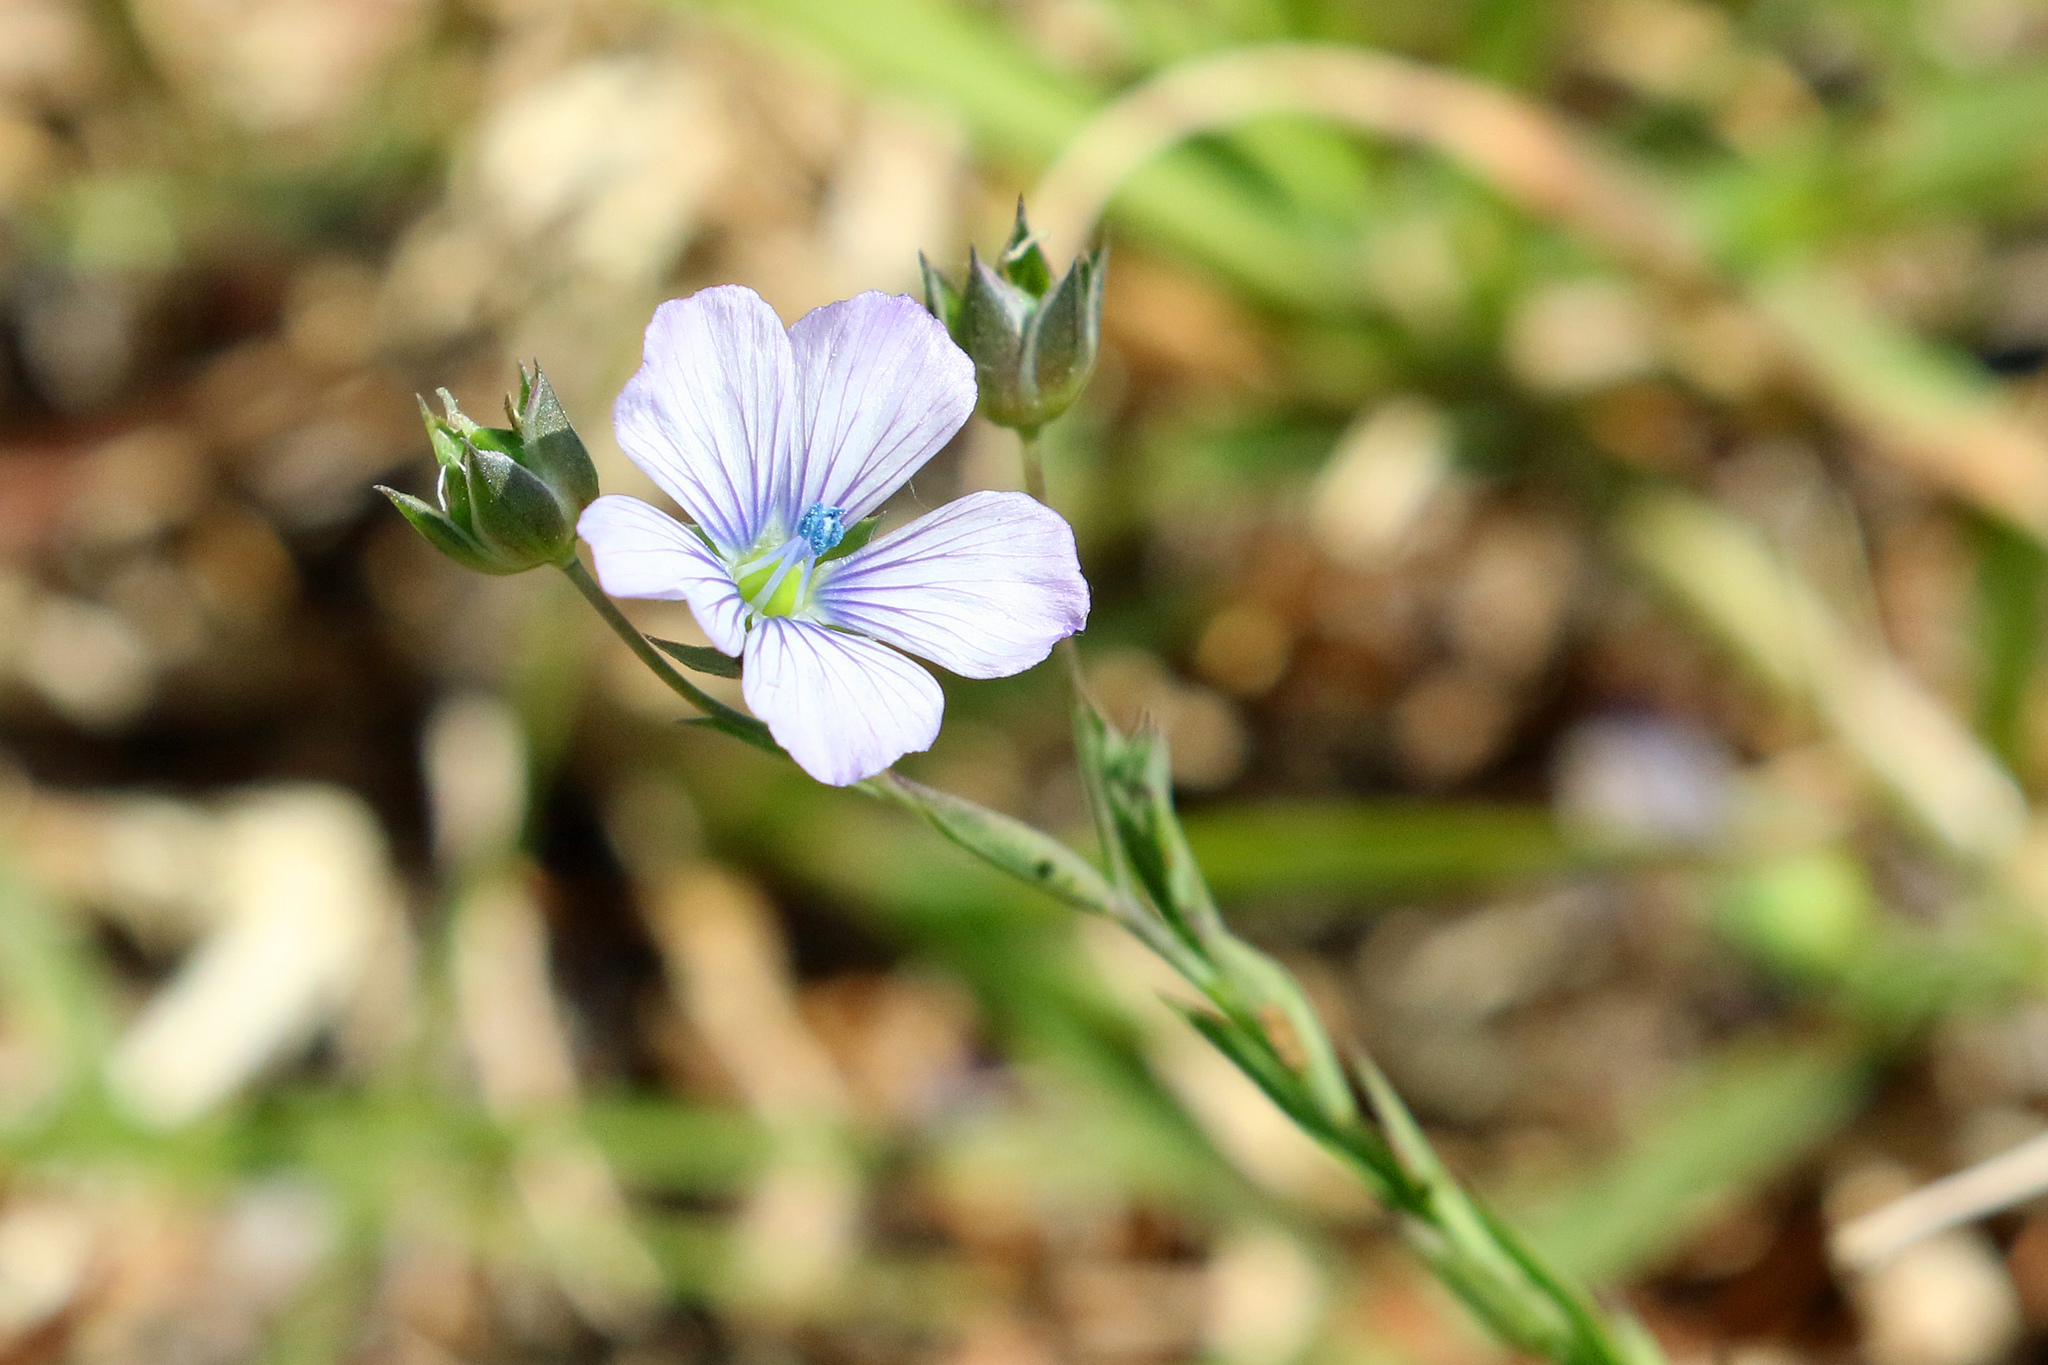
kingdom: Plantae
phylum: Tracheophyta
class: Magnoliopsida
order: Malpighiales
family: Linaceae
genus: Linum
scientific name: Linum bienne
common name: Pale flax
